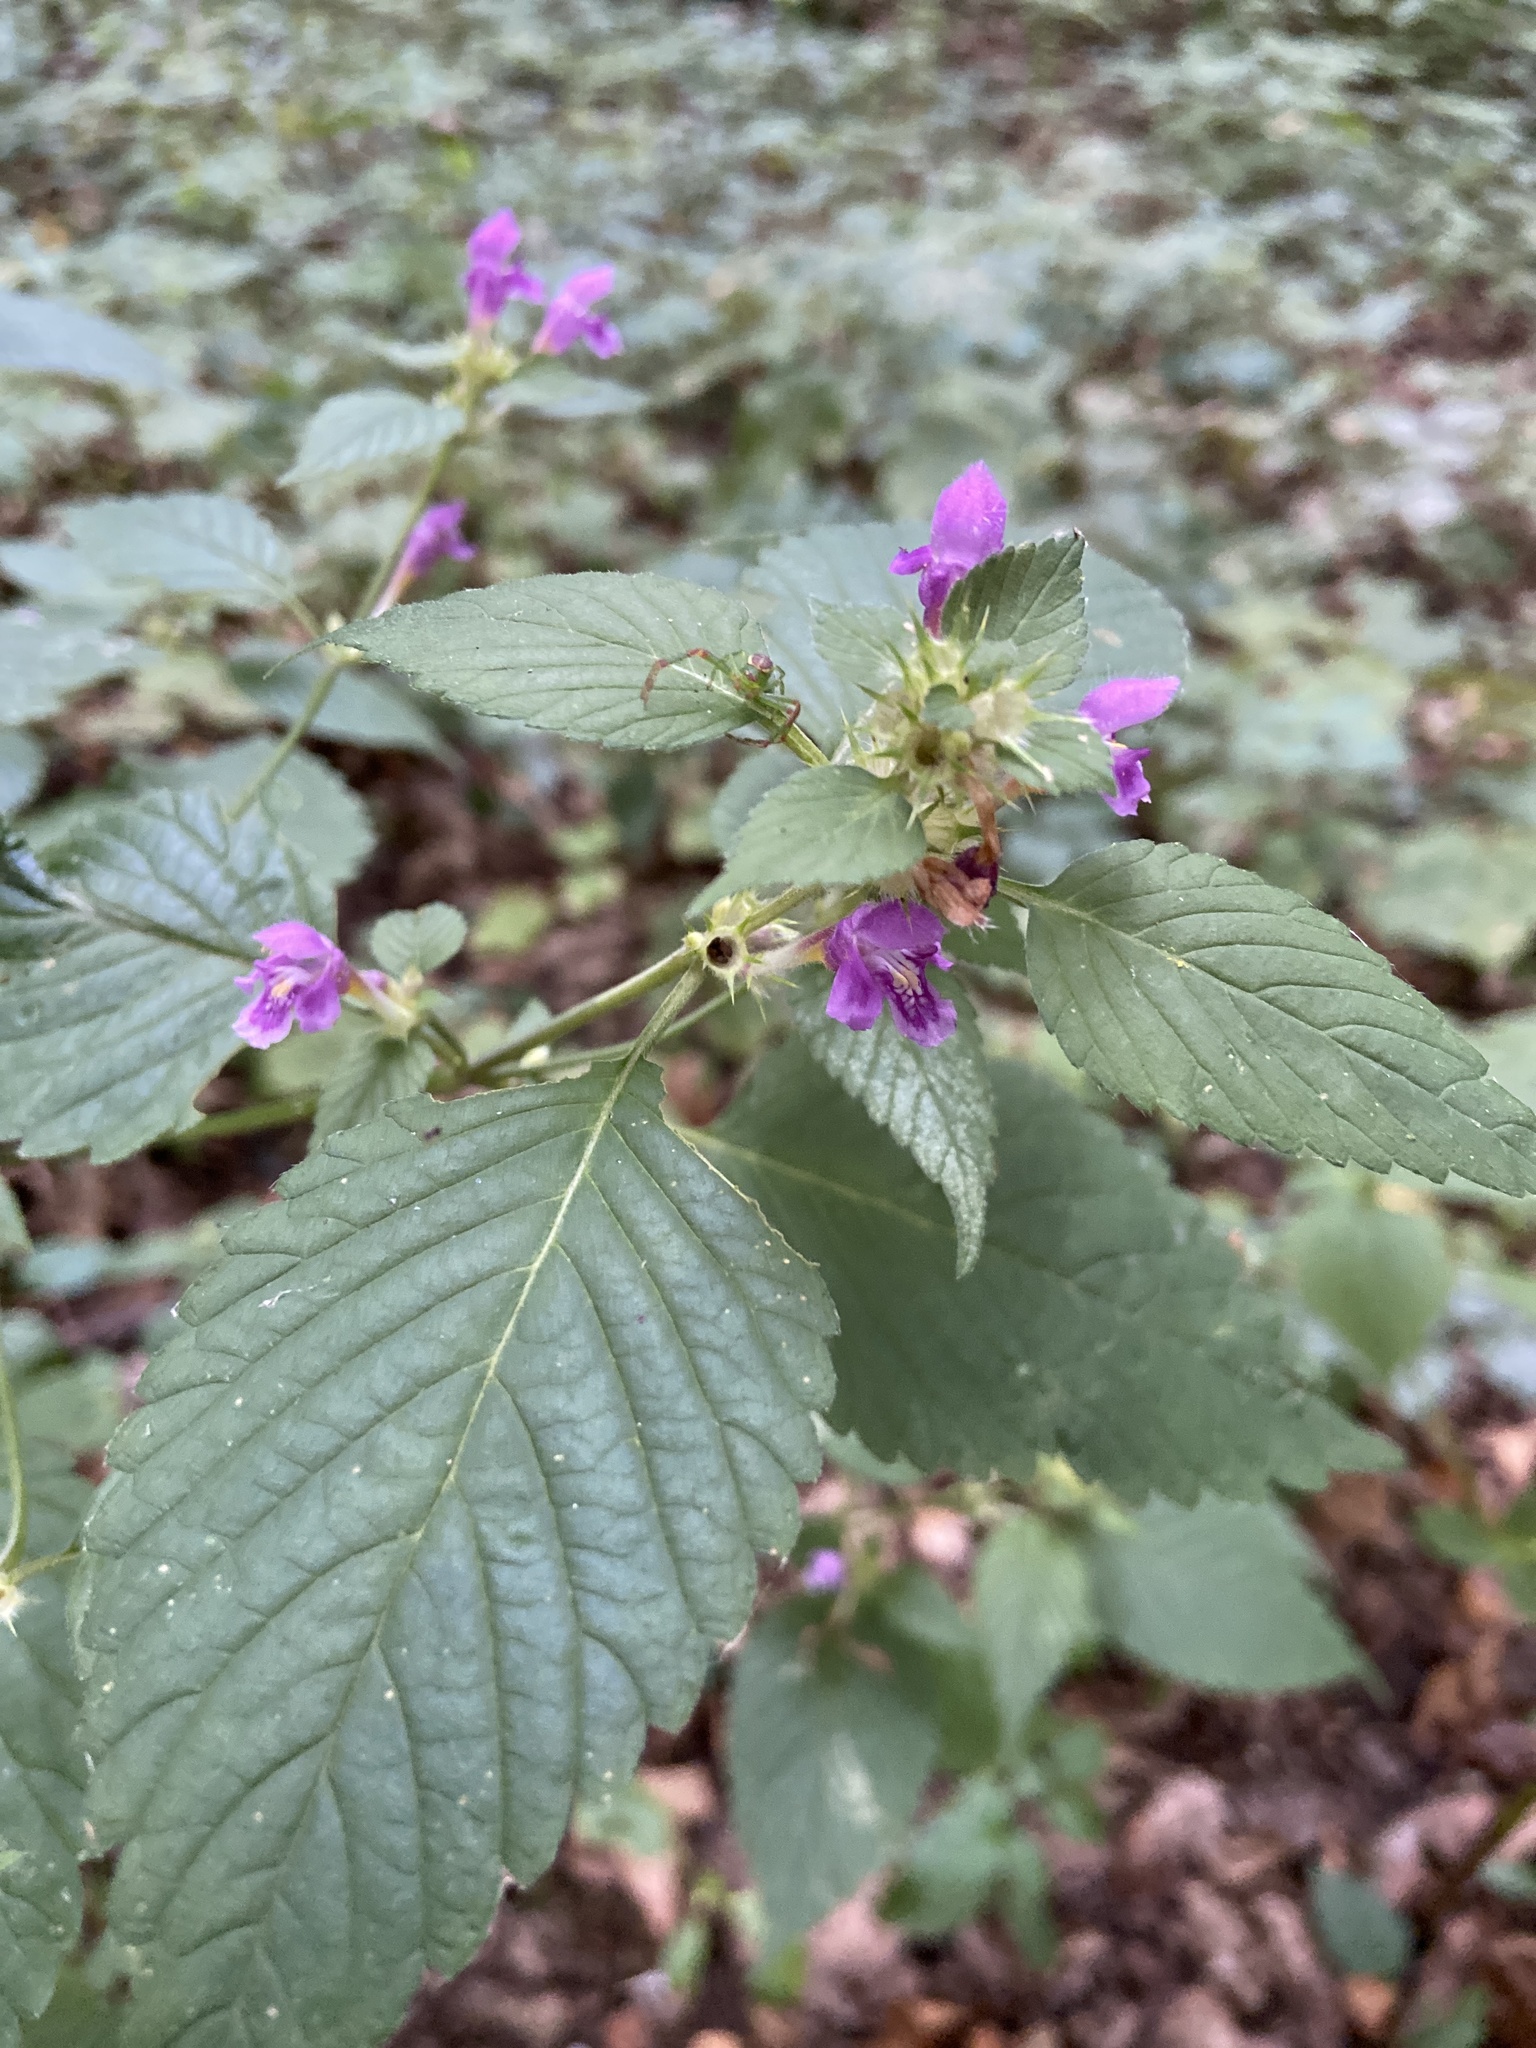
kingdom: Plantae
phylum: Tracheophyta
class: Magnoliopsida
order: Lamiales
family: Lamiaceae
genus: Galeopsis
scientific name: Galeopsis tetrahit
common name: Common hemp-nettle
